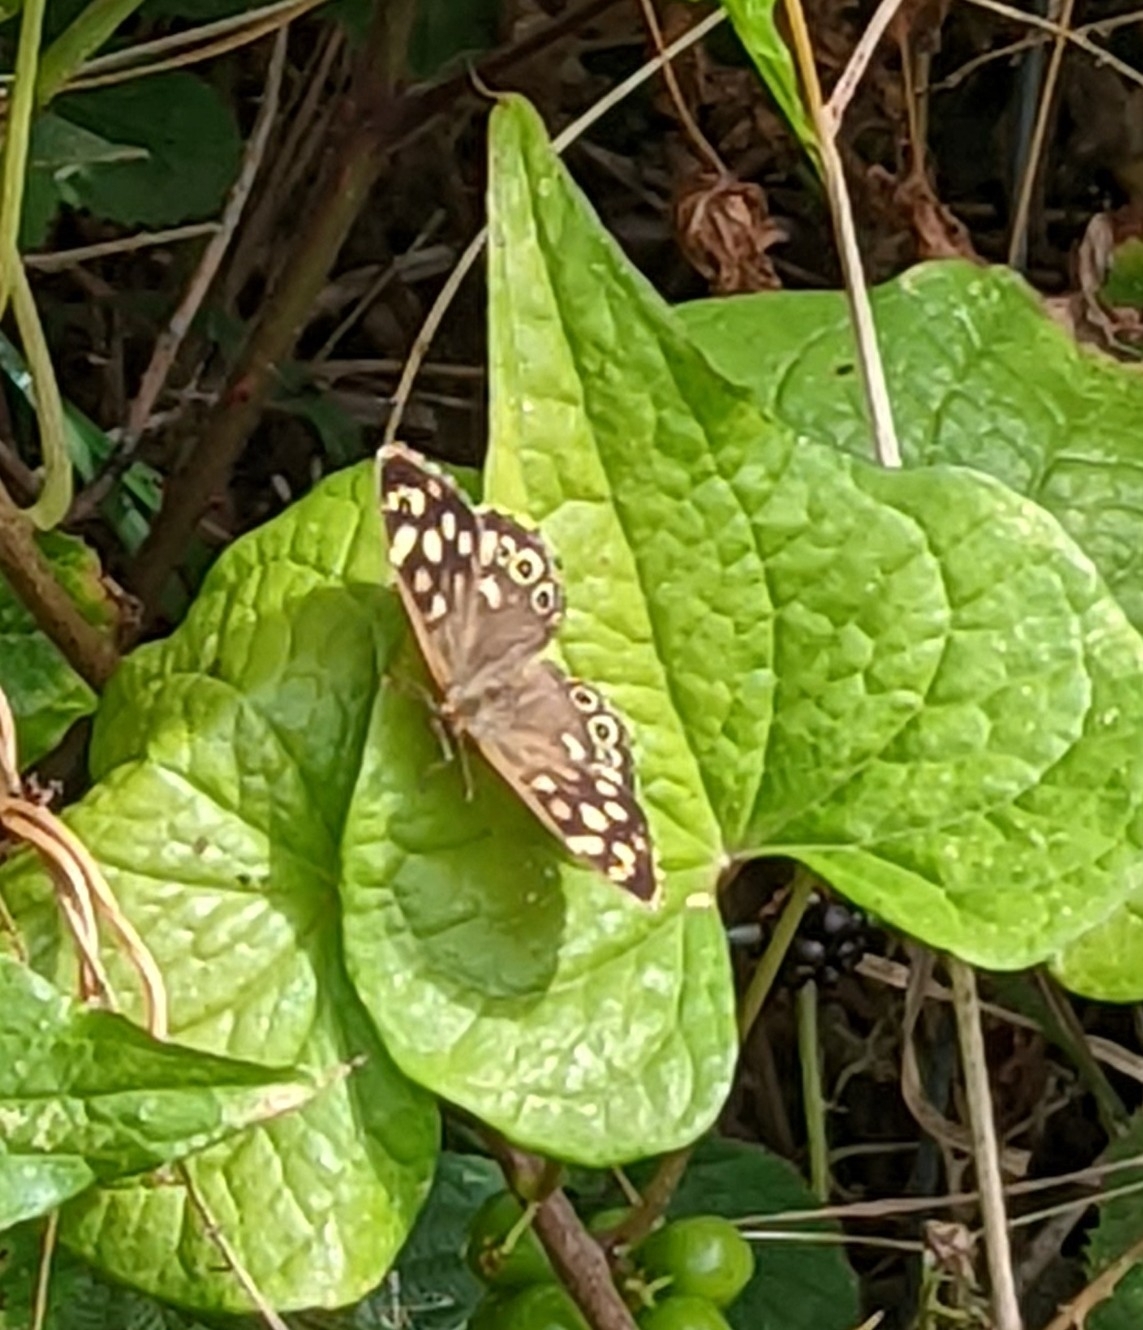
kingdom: Animalia
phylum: Arthropoda
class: Insecta
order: Lepidoptera
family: Nymphalidae
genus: Pararge
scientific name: Pararge aegeria
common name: Speckled wood
